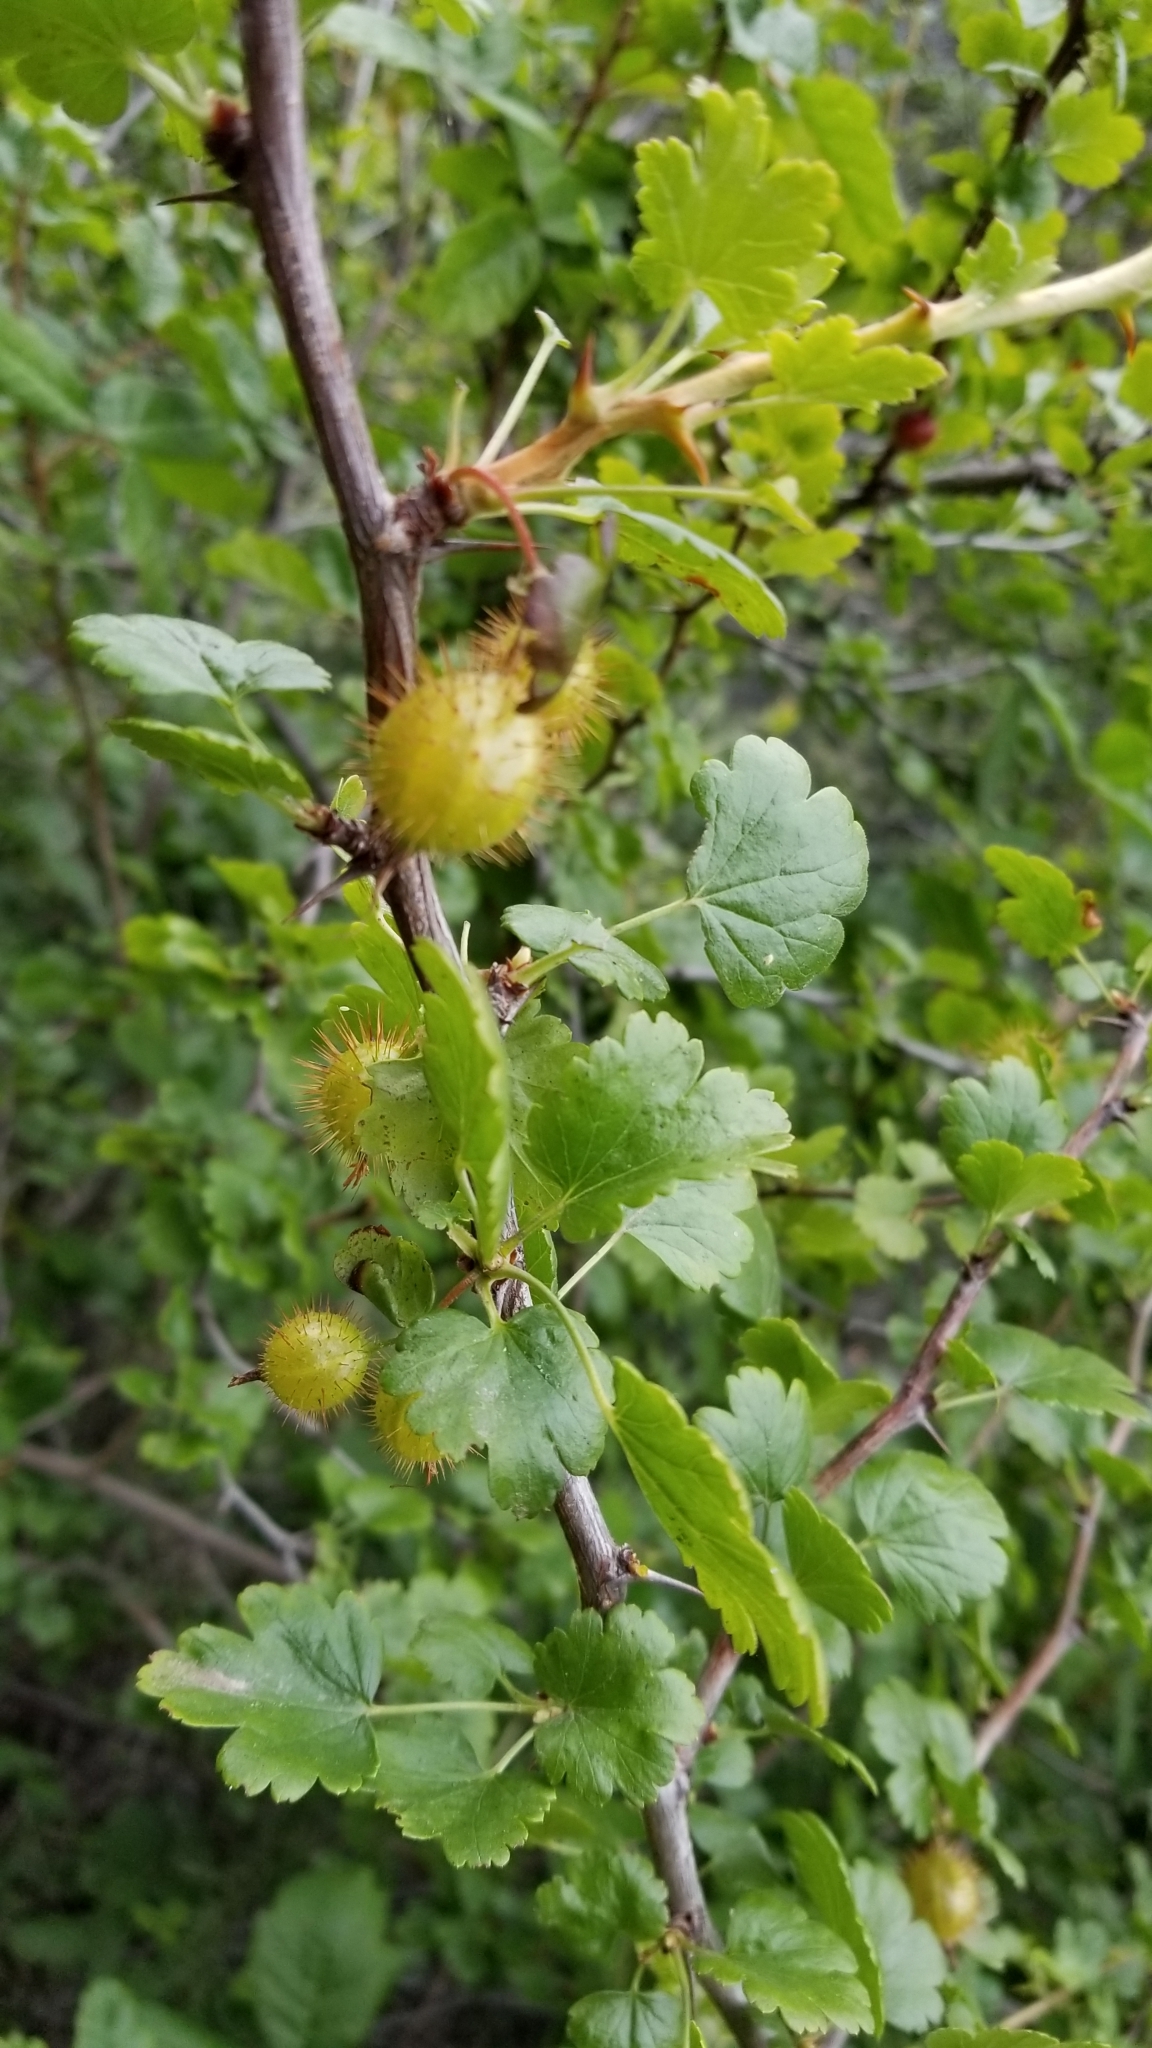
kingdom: Plantae
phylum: Tracheophyta
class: Magnoliopsida
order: Saxifragales
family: Grossulariaceae
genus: Ribes
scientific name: Ribes californicum
